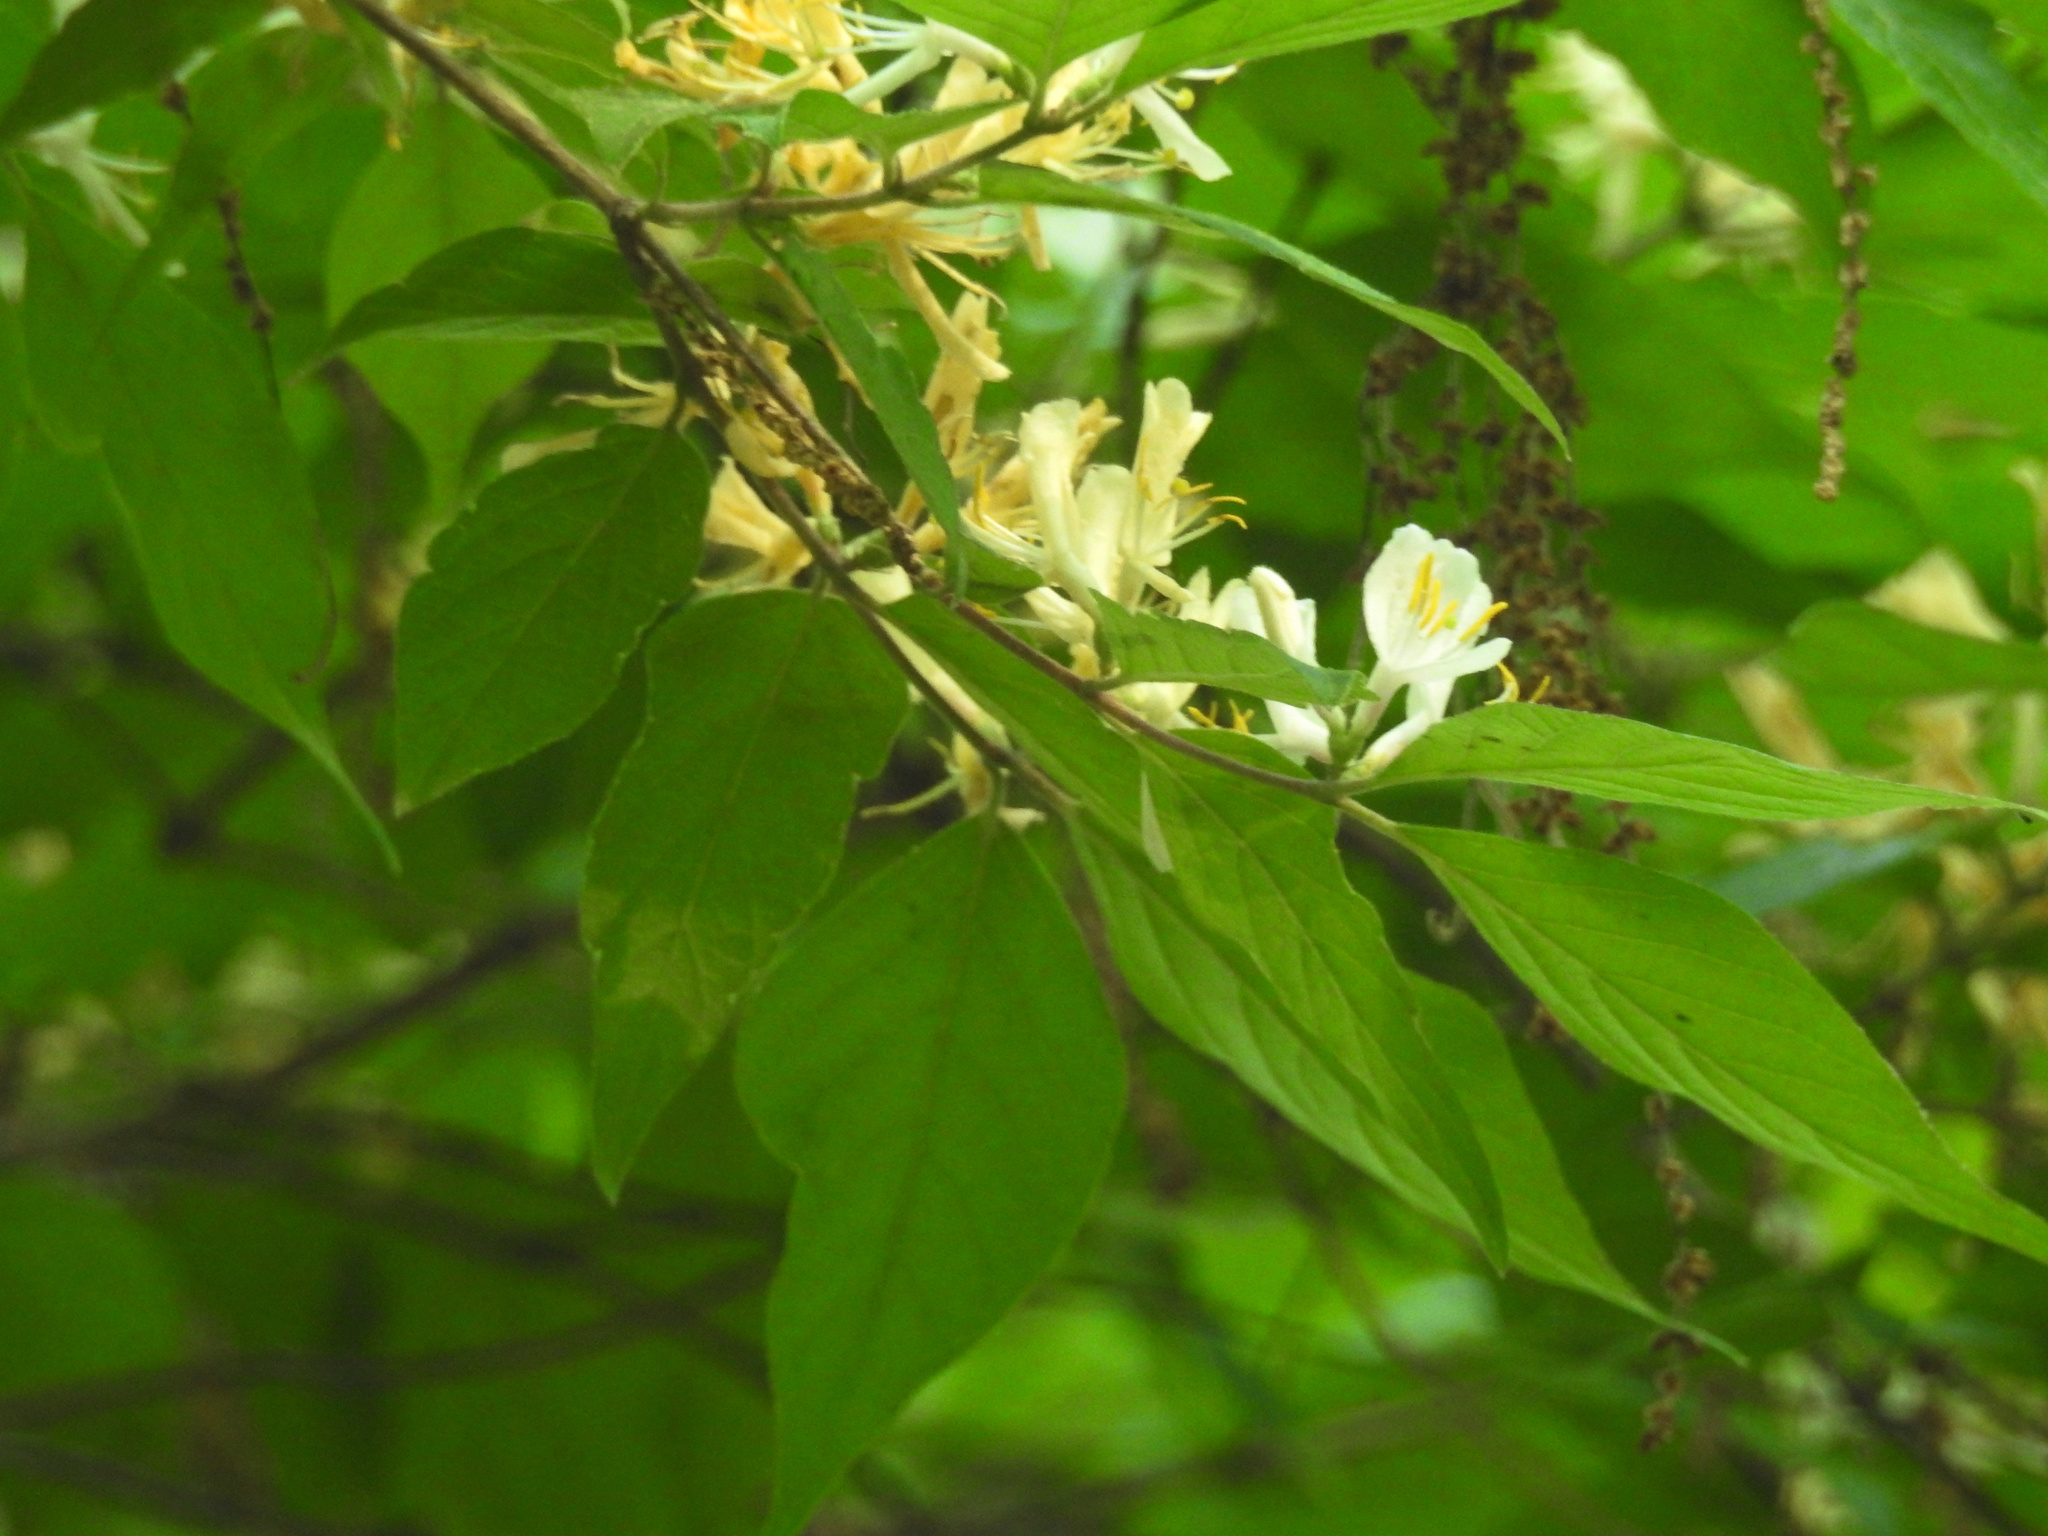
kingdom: Plantae
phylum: Tracheophyta
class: Magnoliopsida
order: Dipsacales
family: Caprifoliaceae
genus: Lonicera
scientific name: Lonicera maackii
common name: Amur honeysuckle
